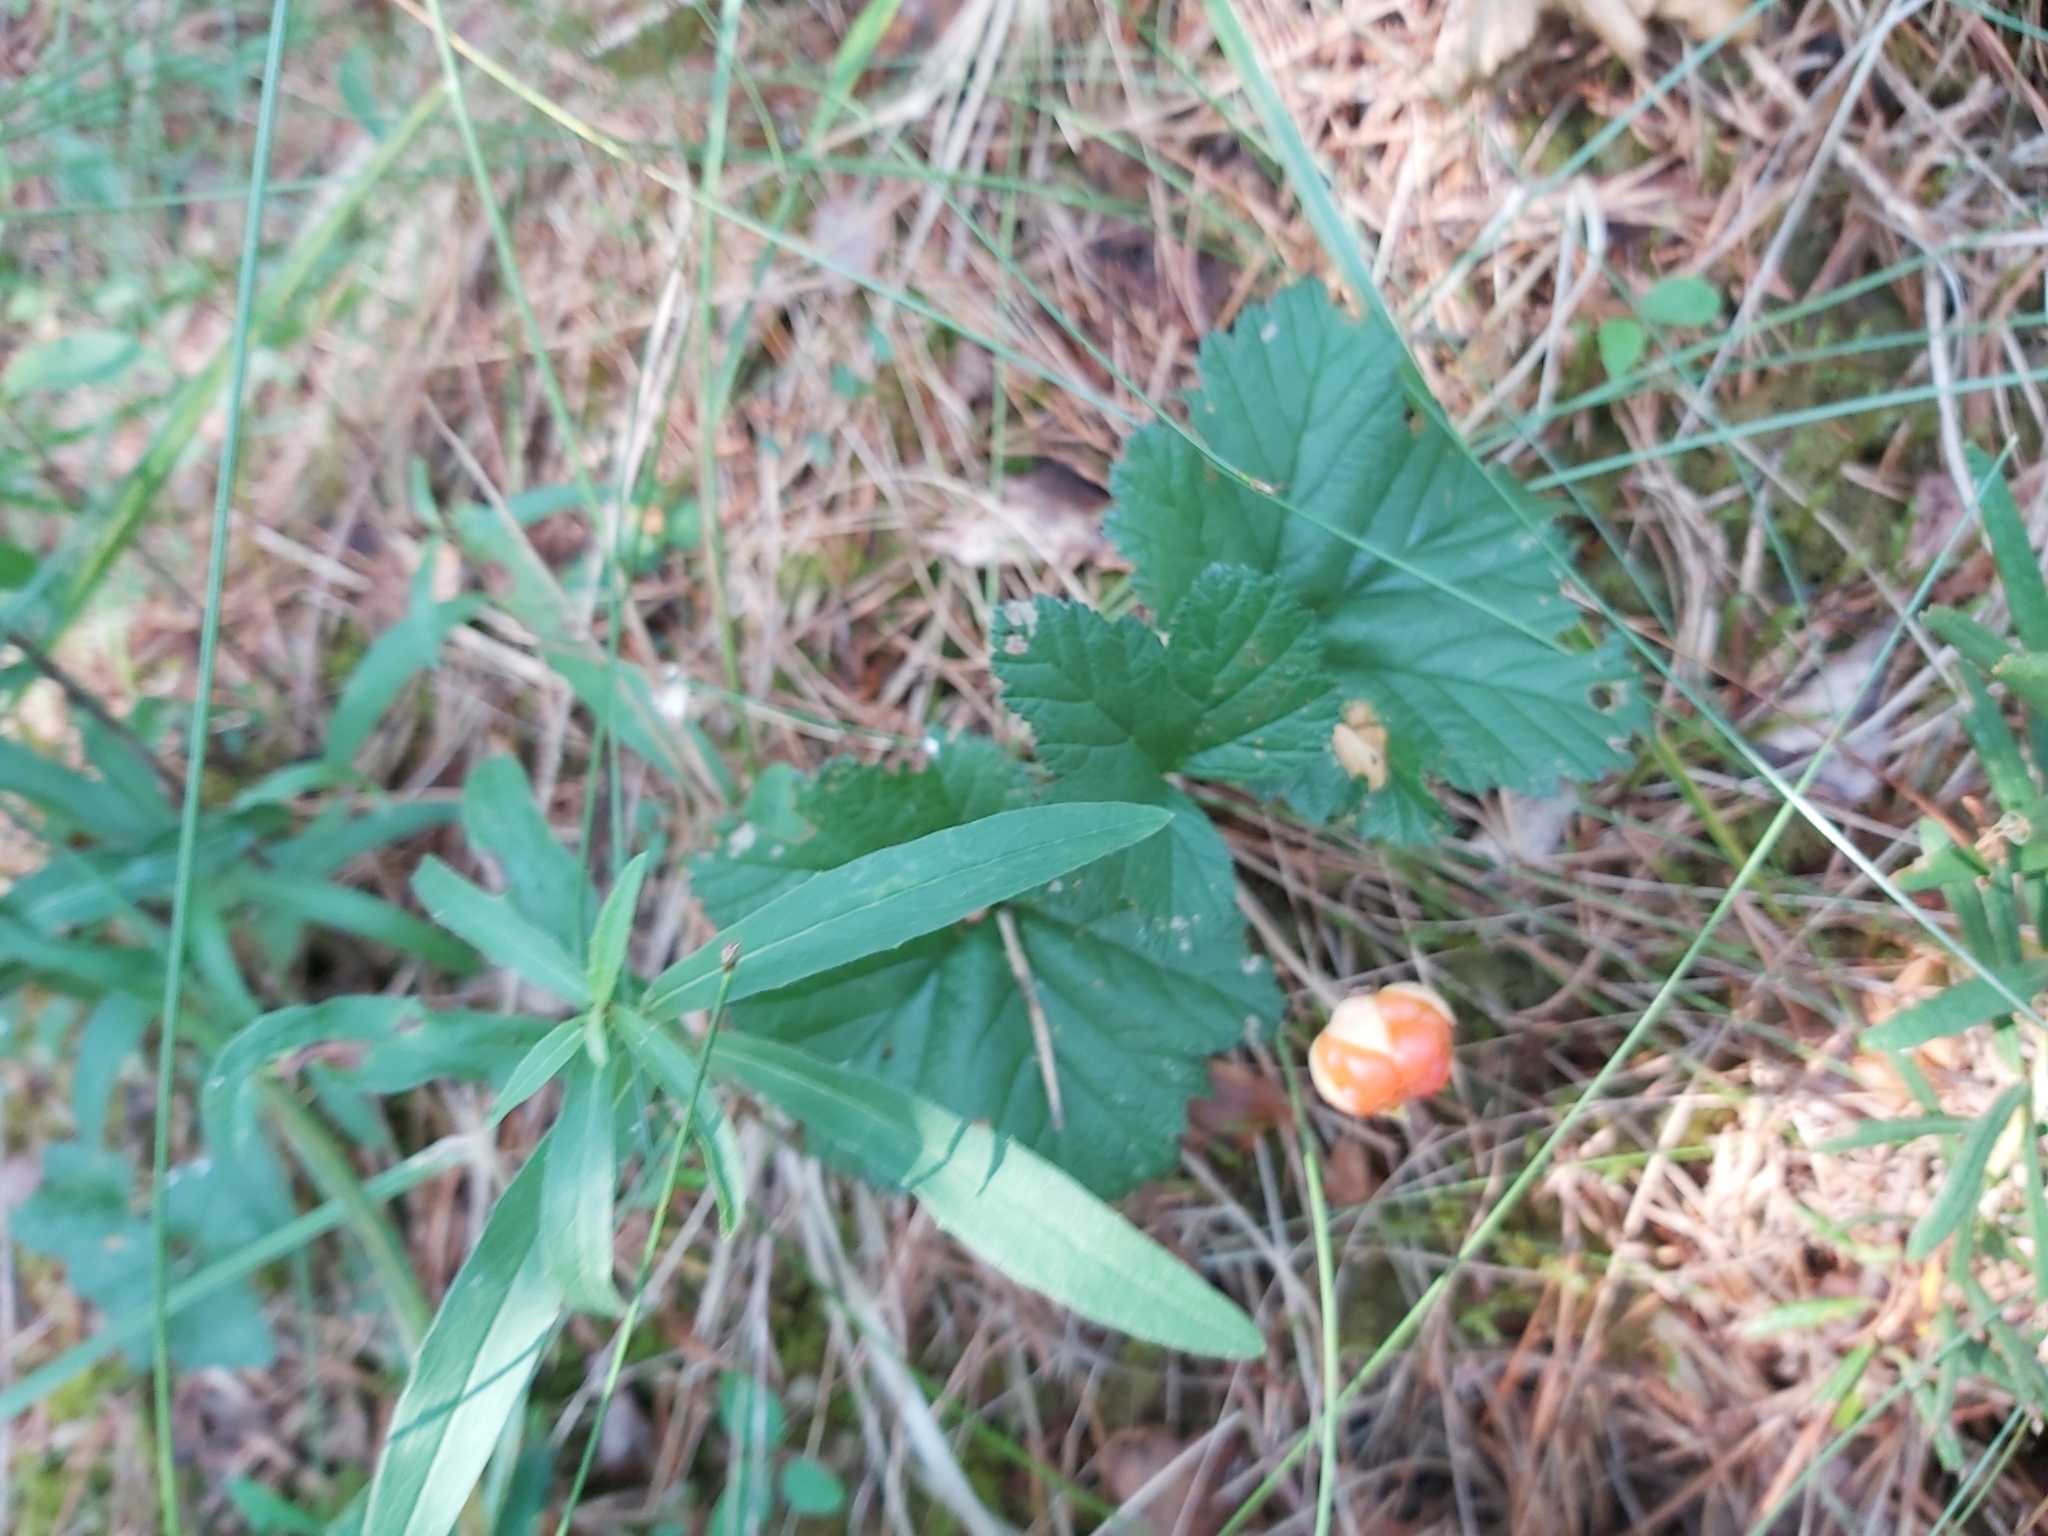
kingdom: Plantae
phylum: Tracheophyta
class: Magnoliopsida
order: Rosales
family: Rosaceae
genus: Rubus
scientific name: Rubus chamaemorus
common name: Cloudberry
